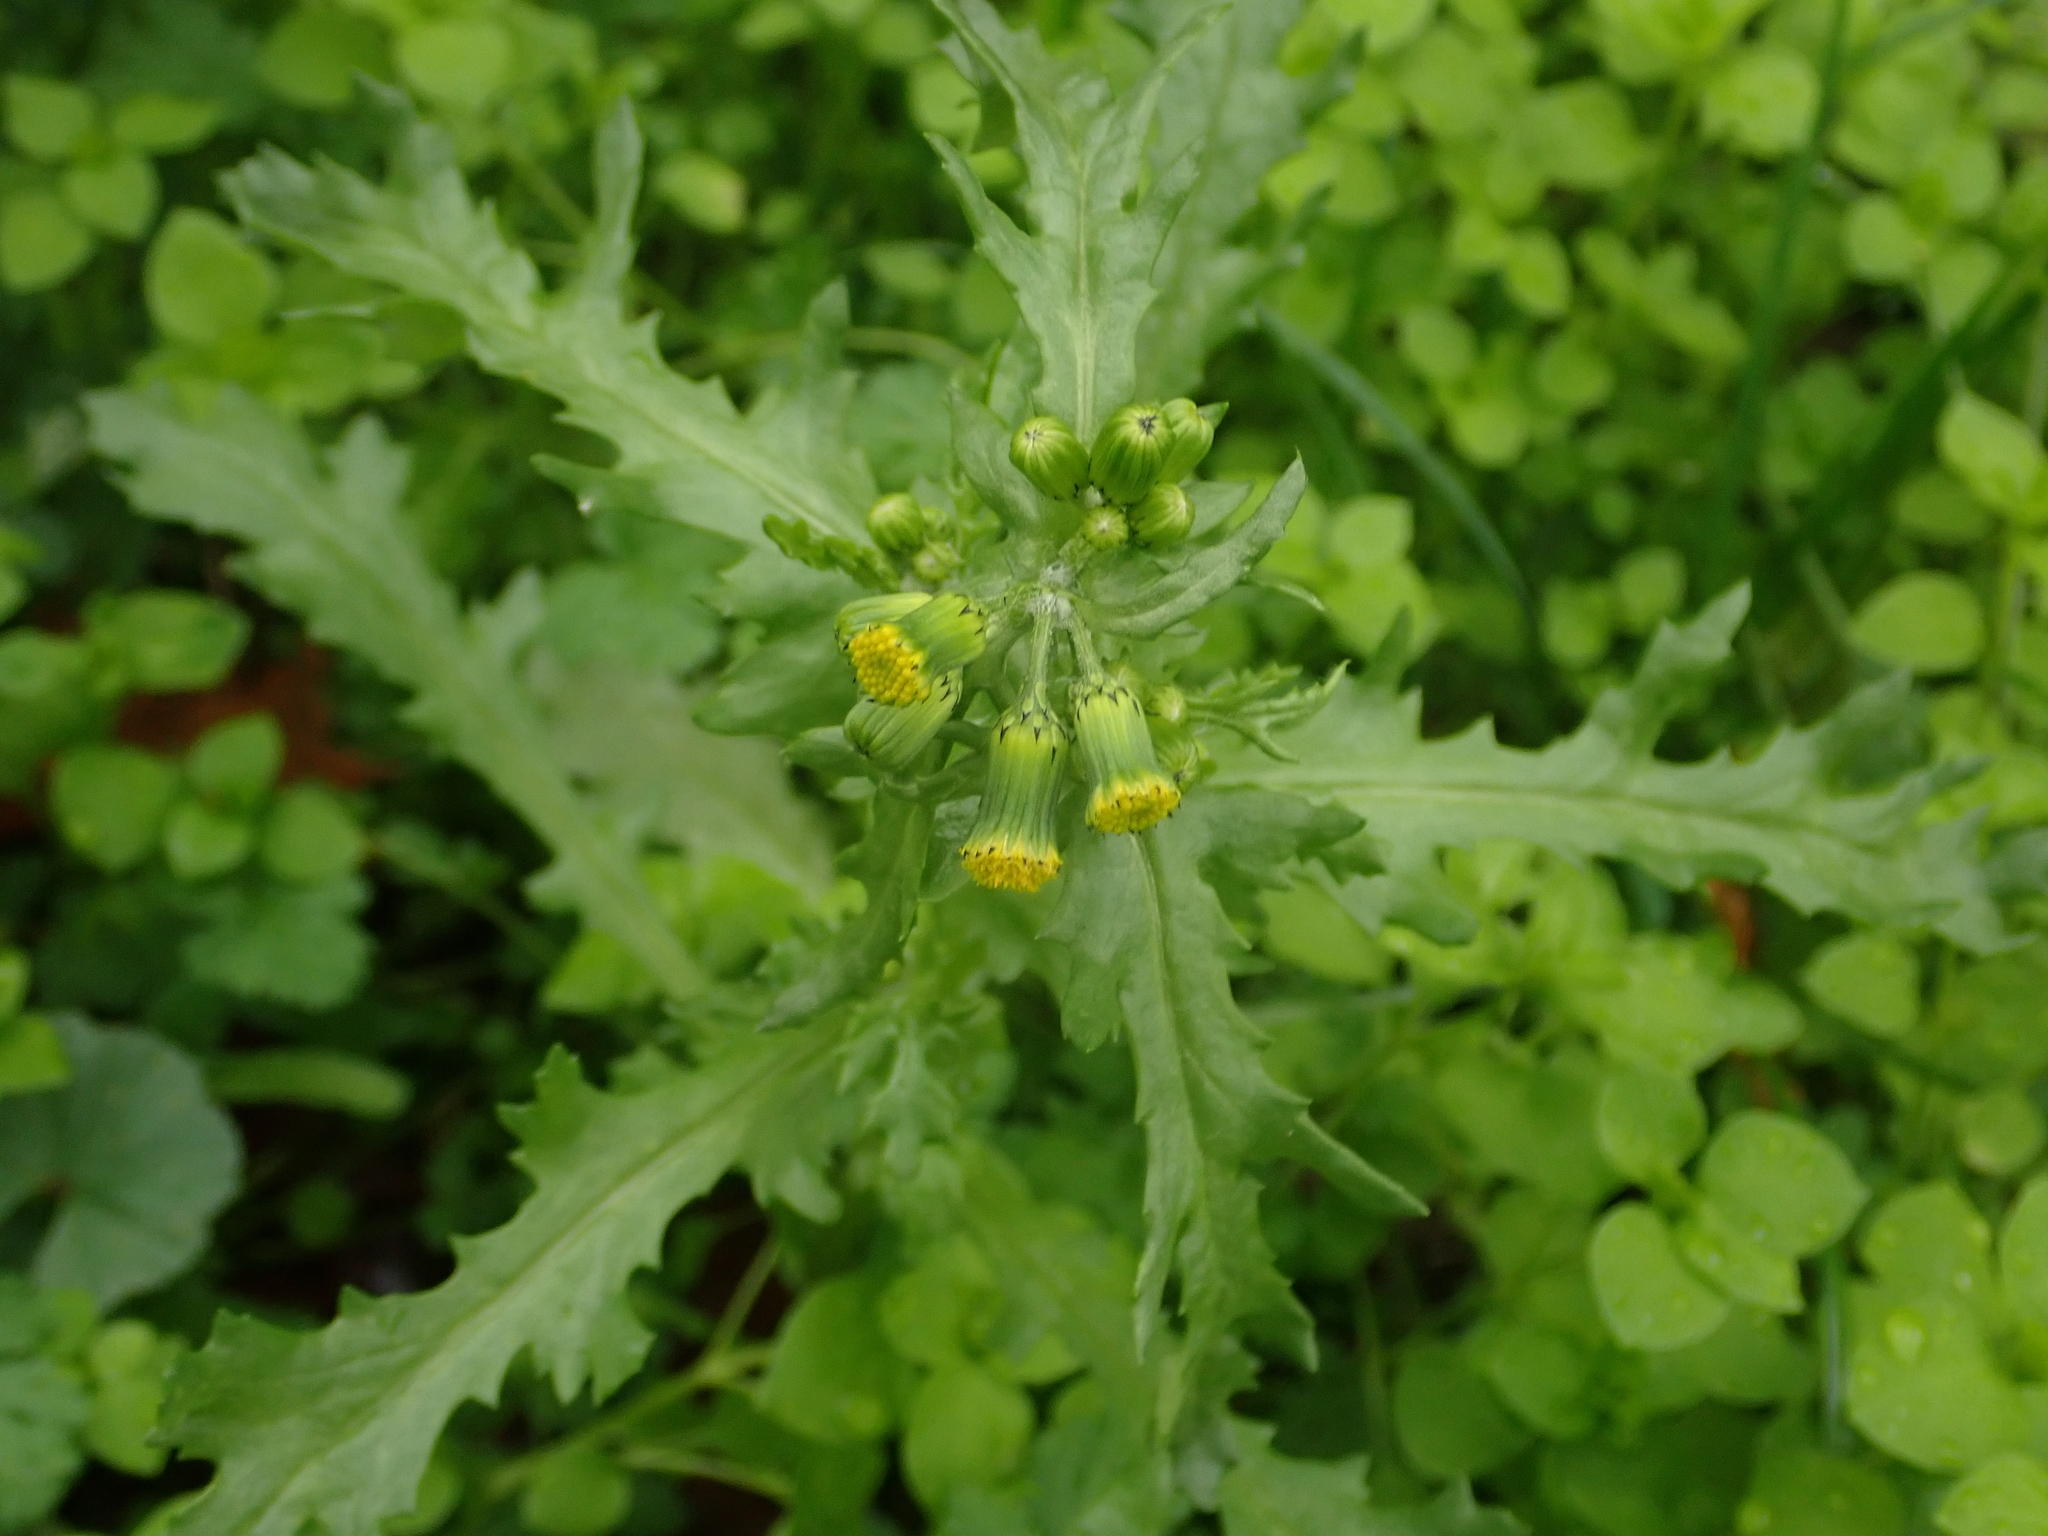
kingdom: Plantae
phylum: Tracheophyta
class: Magnoliopsida
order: Asterales
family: Asteraceae
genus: Senecio
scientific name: Senecio vulgaris
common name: Old-man-in-the-spring
